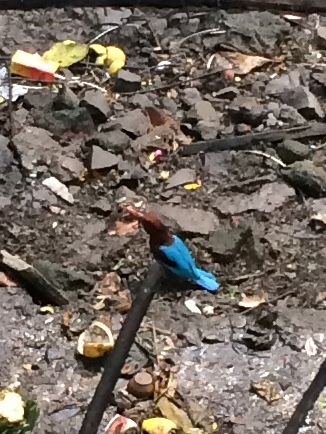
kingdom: Animalia
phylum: Chordata
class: Aves
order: Coraciiformes
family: Alcedinidae
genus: Halcyon
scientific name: Halcyon smyrnensis
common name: White-throated kingfisher
